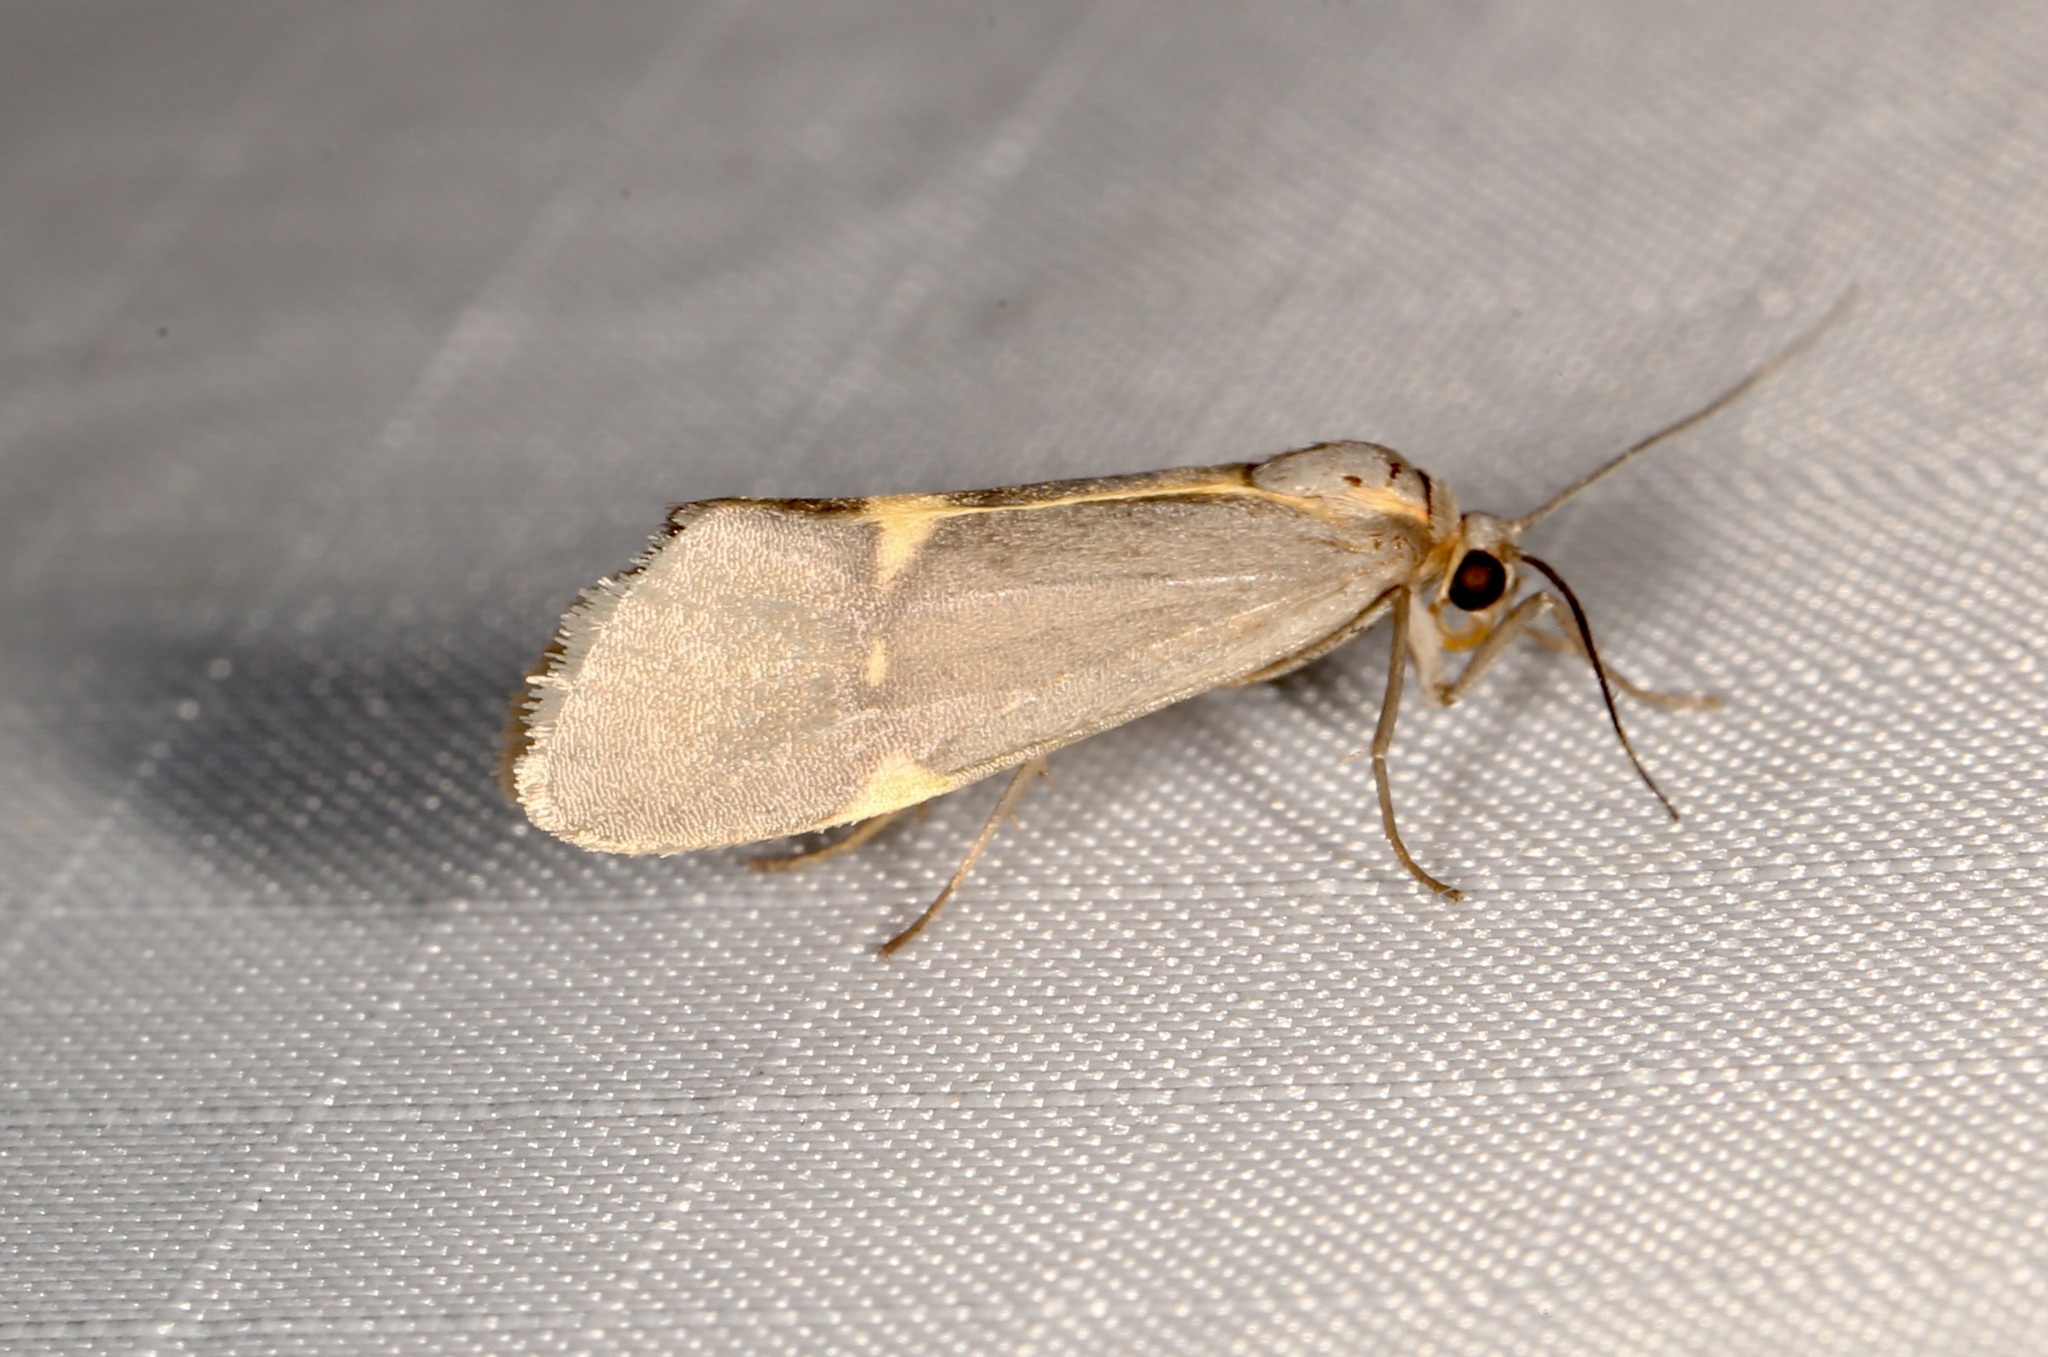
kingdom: Animalia
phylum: Arthropoda
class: Insecta
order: Lepidoptera
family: Erebidae
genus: Cisthene
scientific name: Cisthene barnesii
